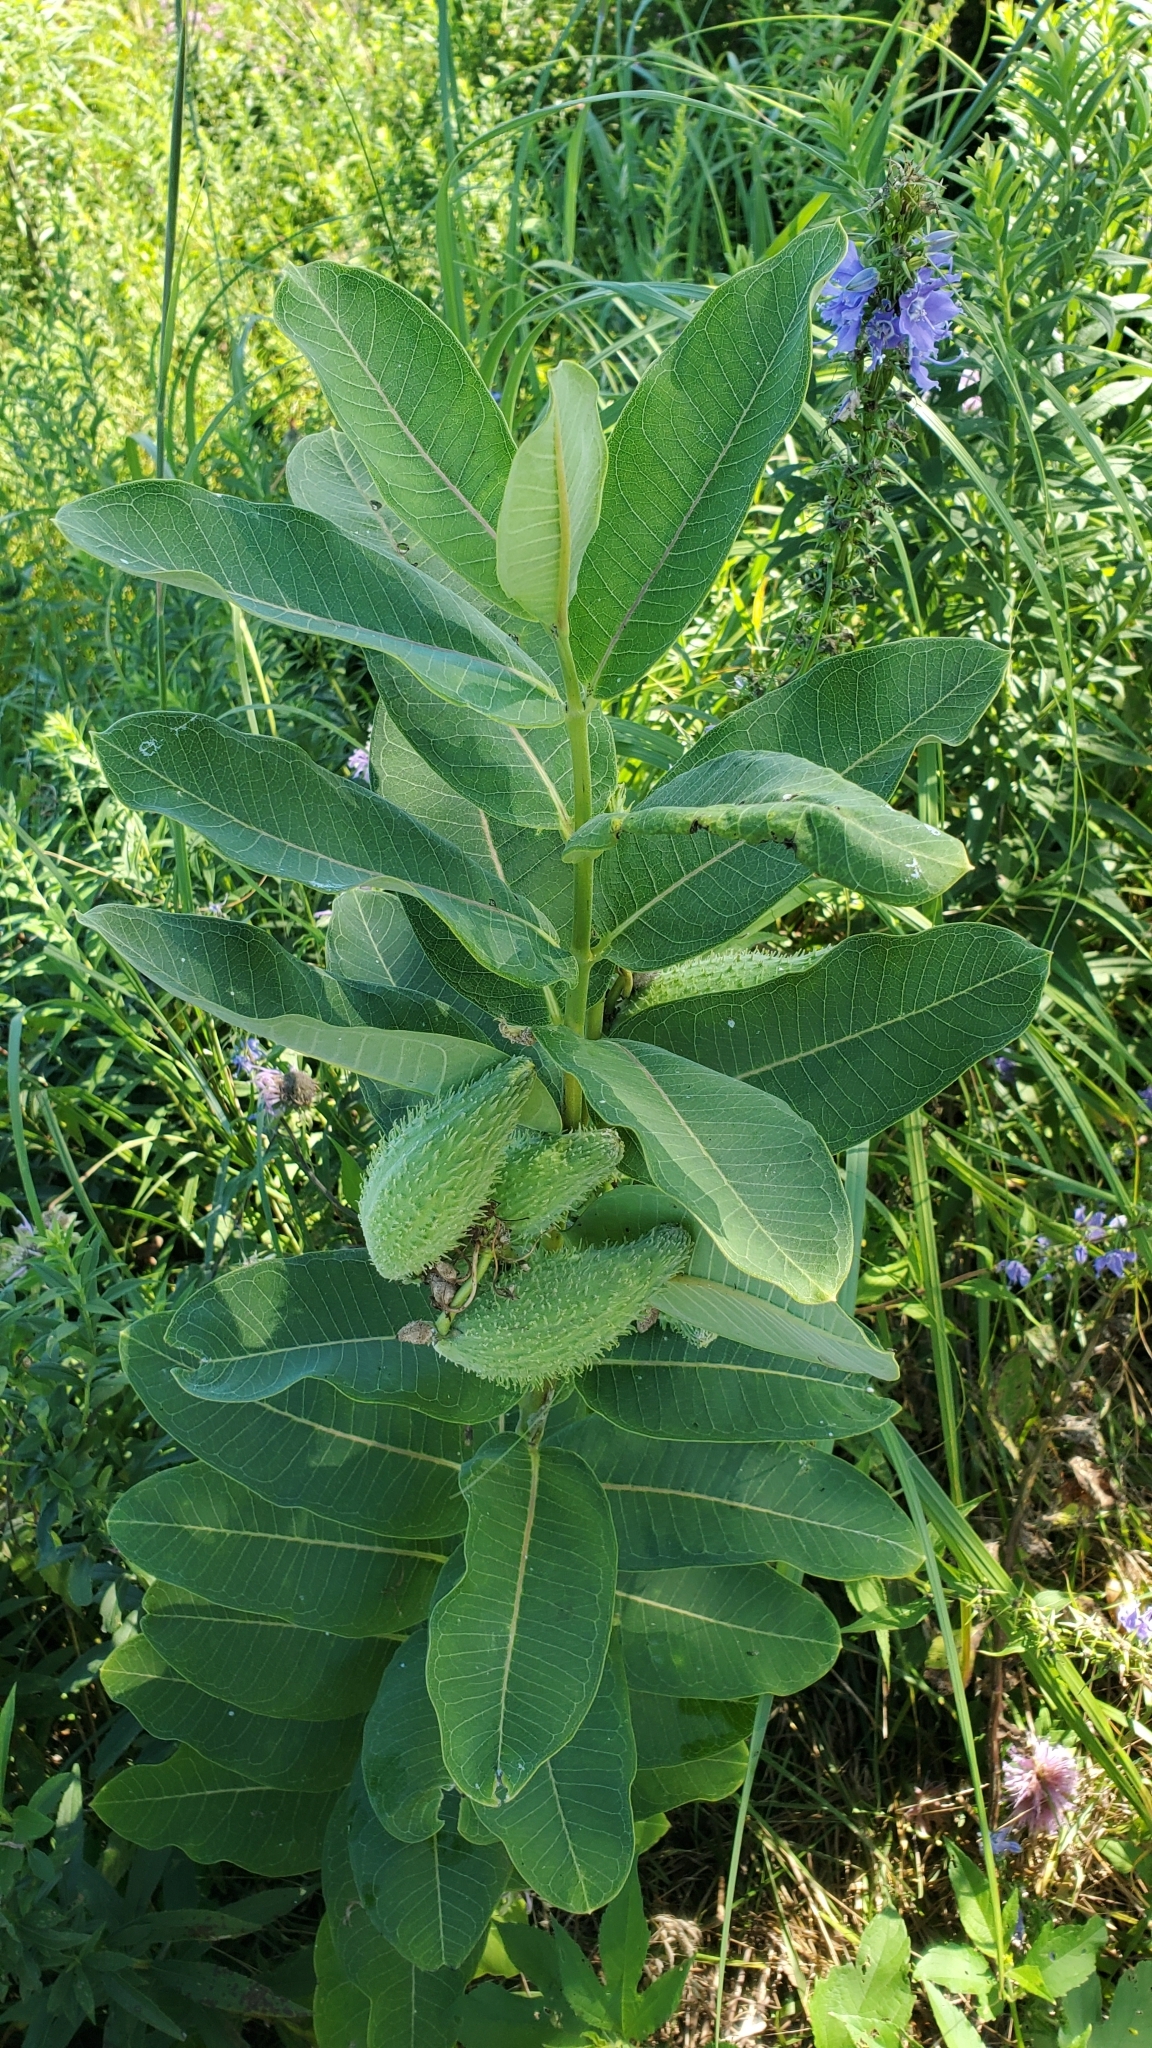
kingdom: Plantae
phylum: Tracheophyta
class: Magnoliopsida
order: Gentianales
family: Apocynaceae
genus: Asclepias
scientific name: Asclepias syriaca
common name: Common milkweed
